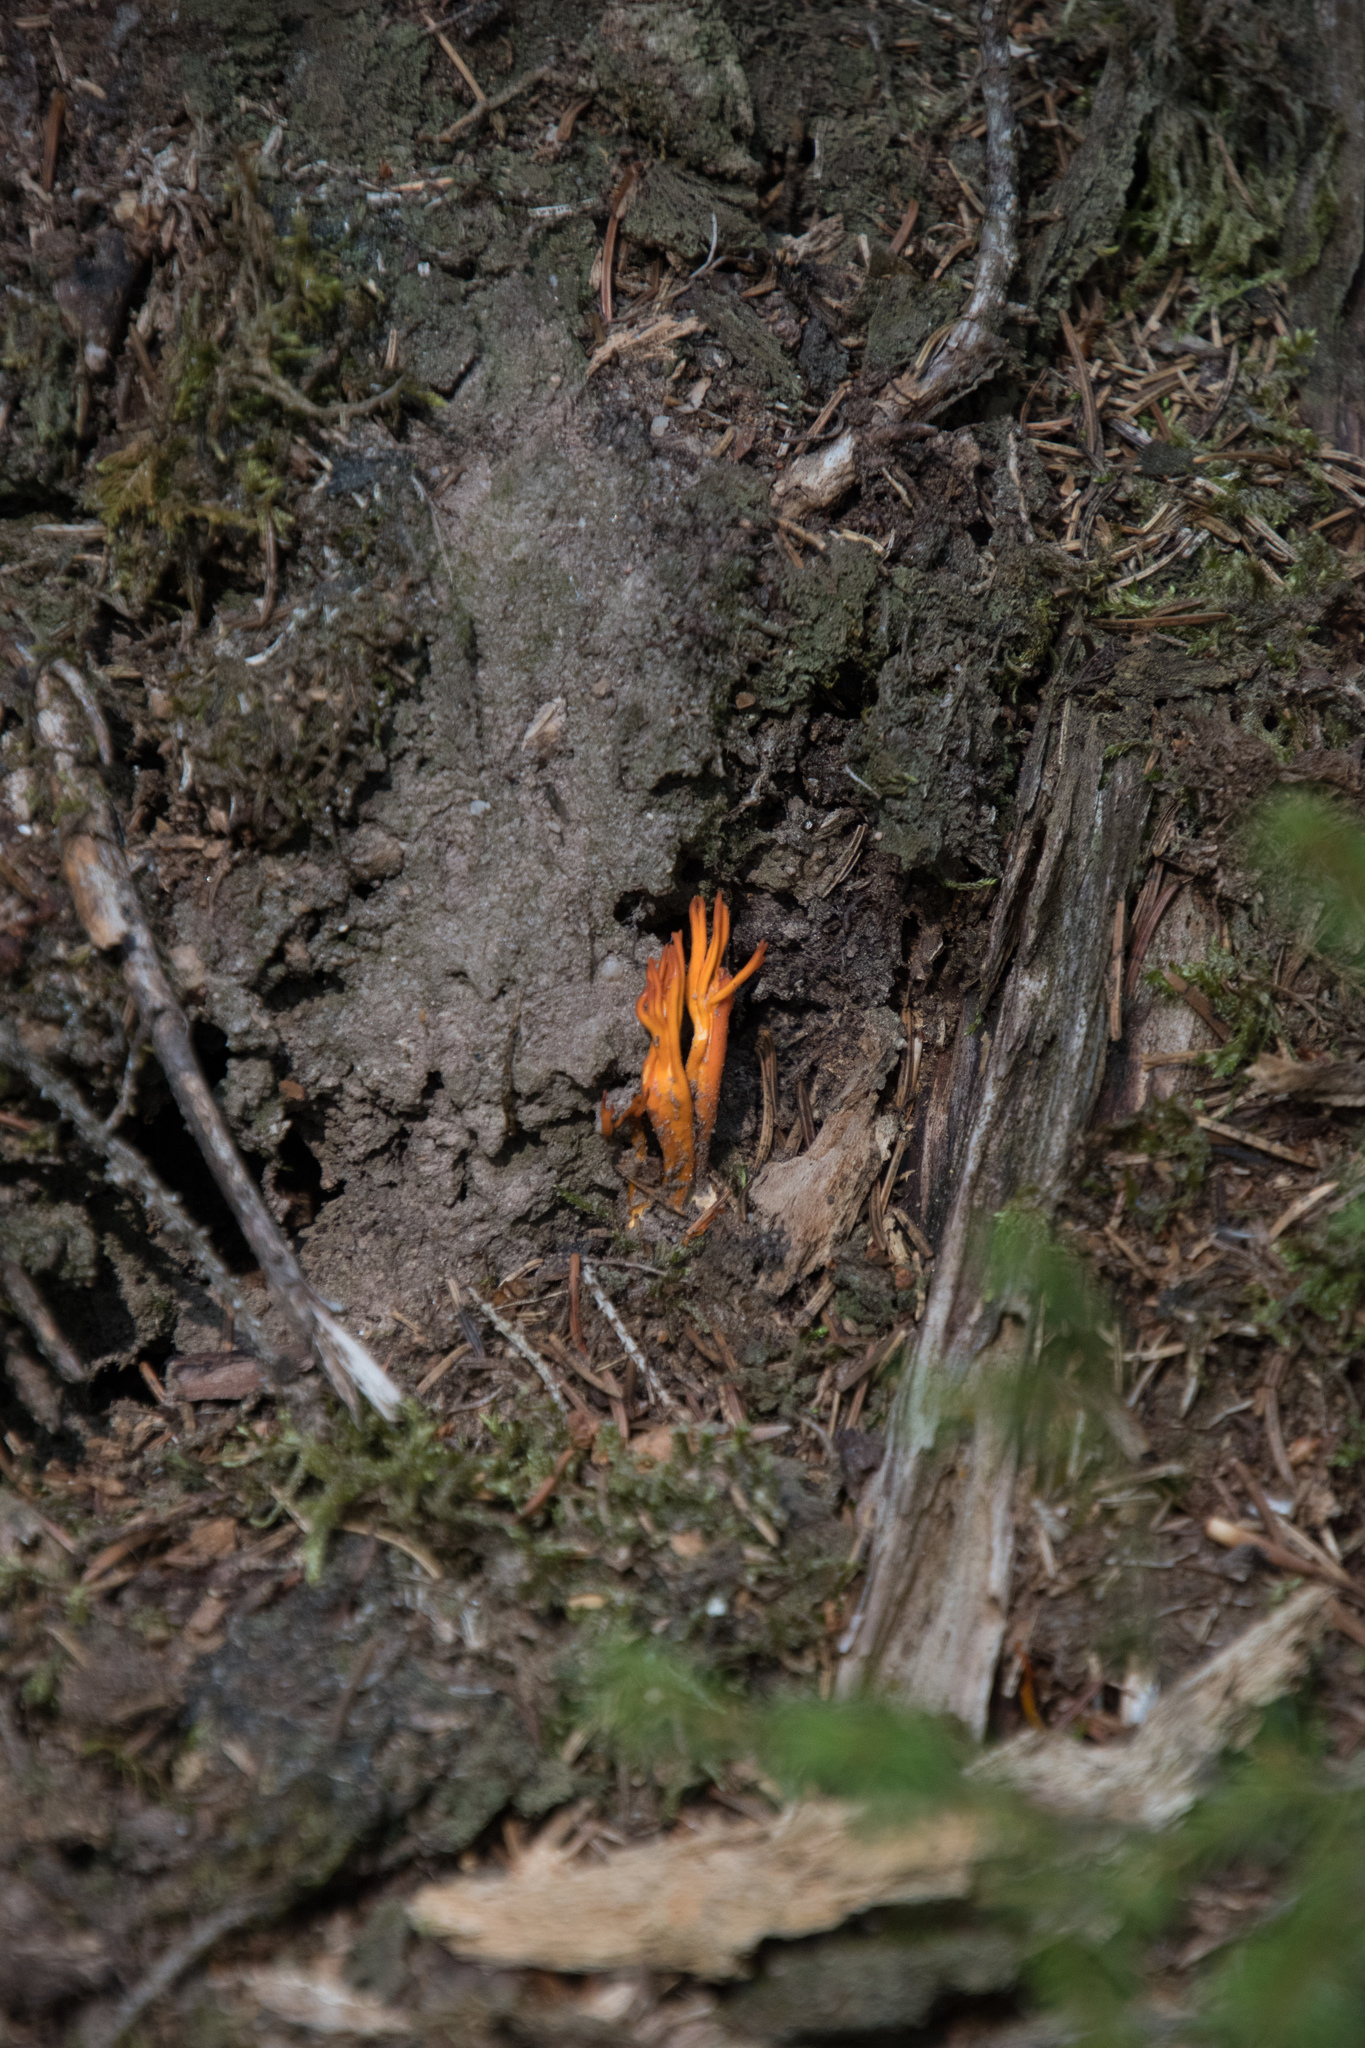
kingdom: Fungi
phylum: Basidiomycota
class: Dacrymycetes
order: Dacrymycetales
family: Dacrymycetaceae
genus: Calocera
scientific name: Calocera viscosa
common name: Yellow stagshorn
